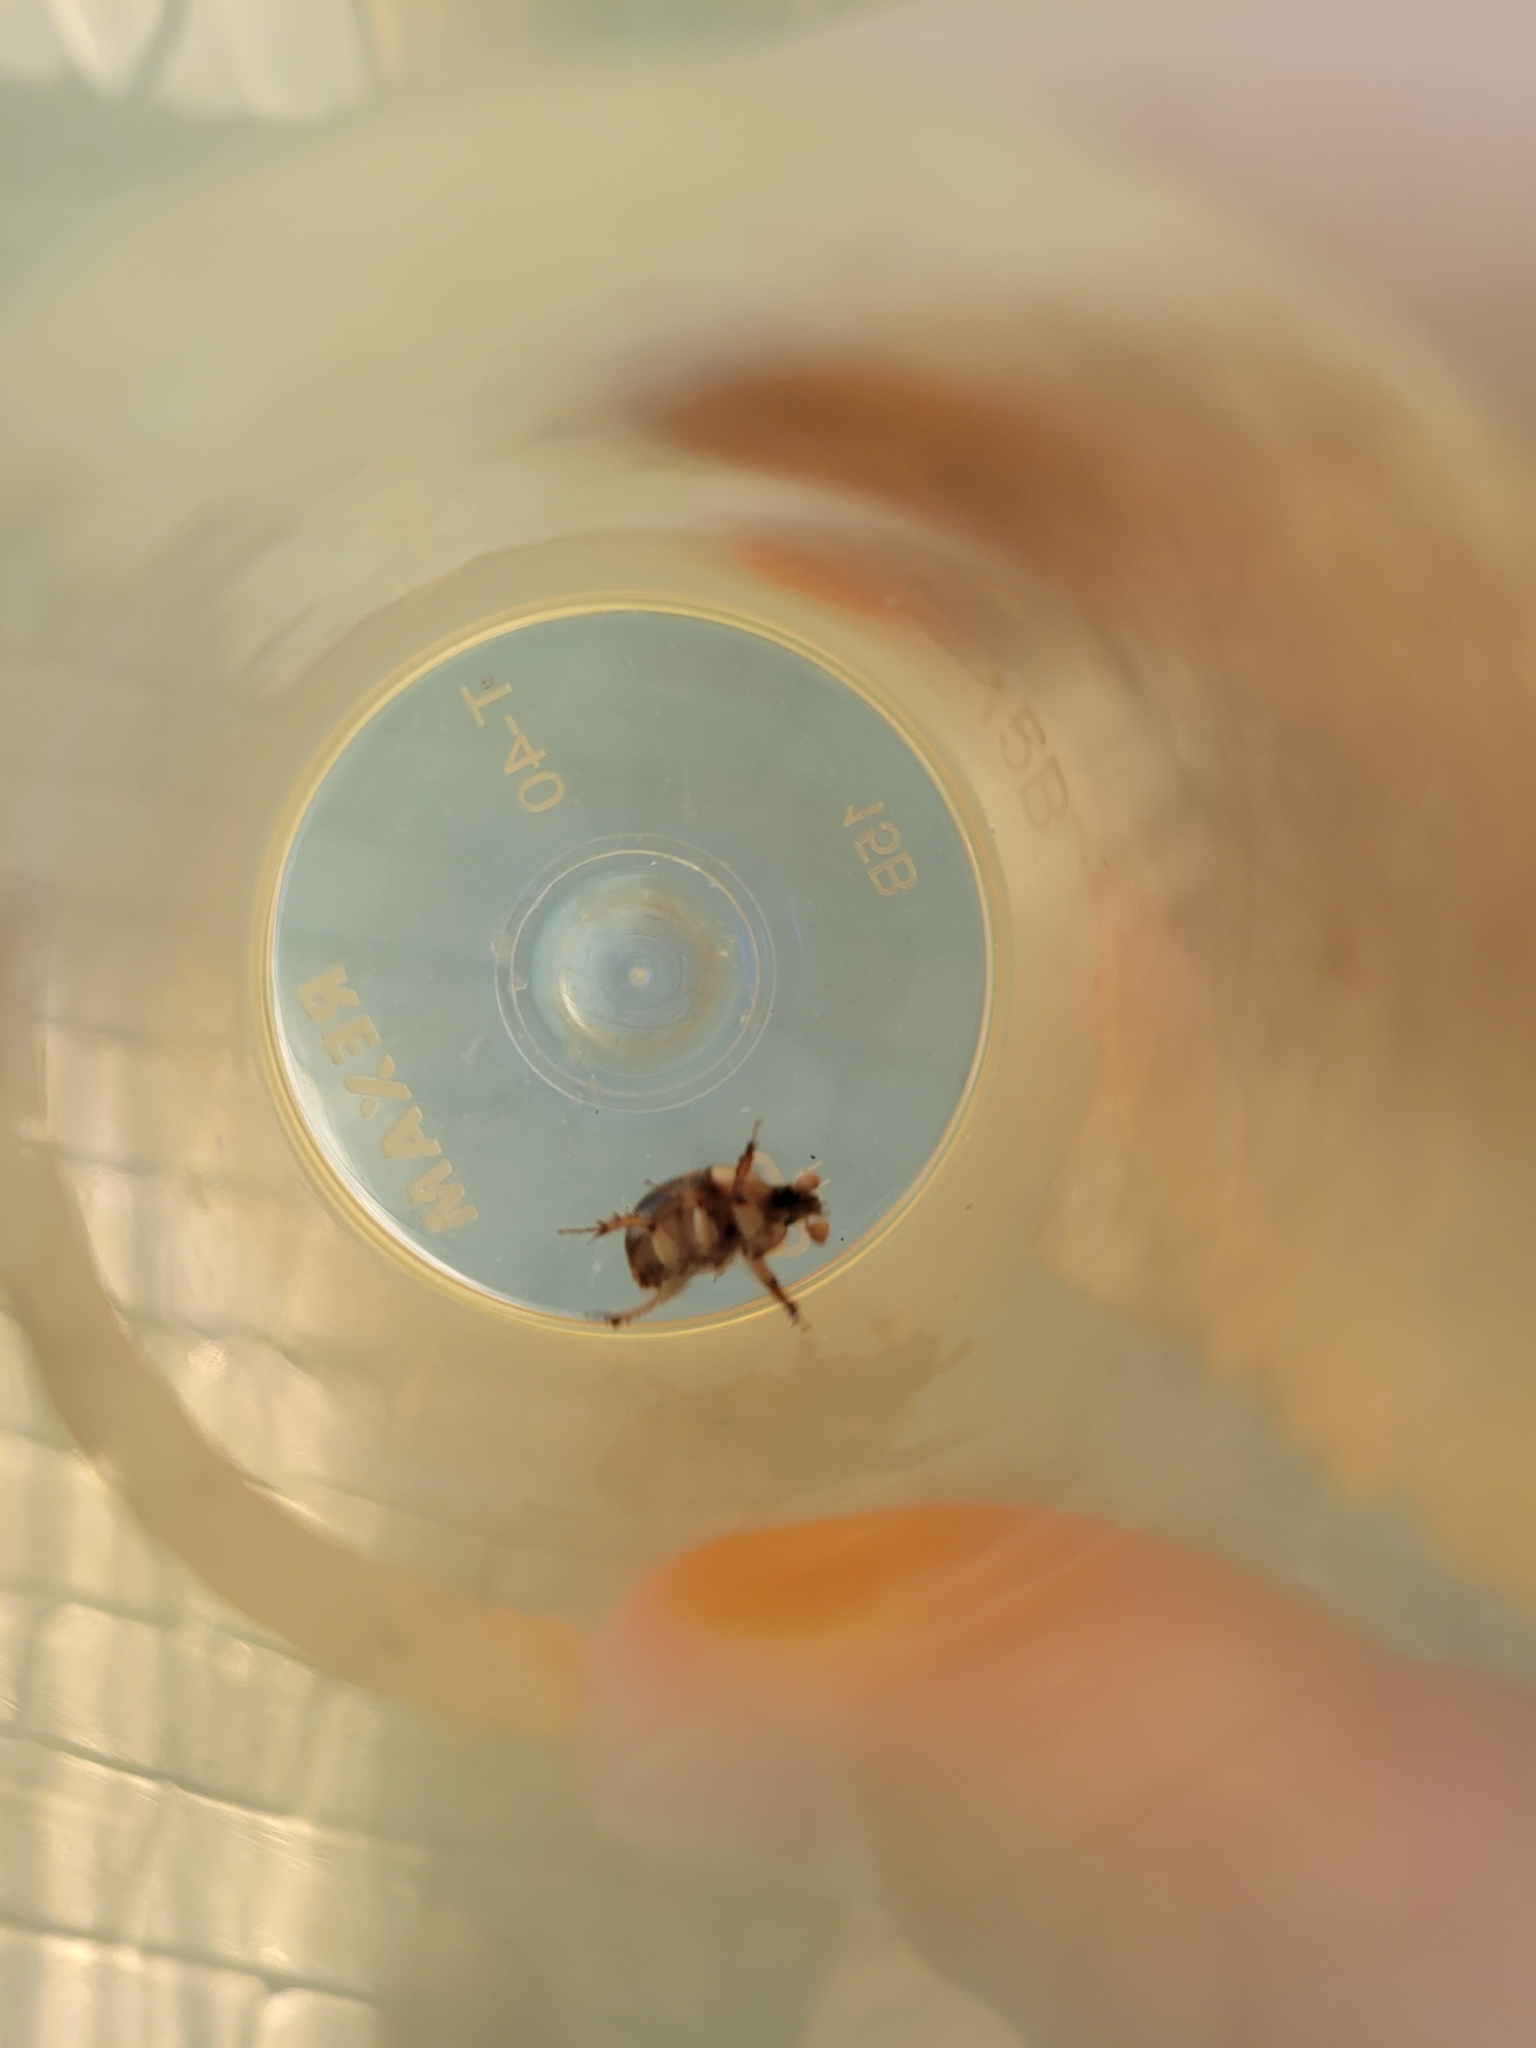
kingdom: Animalia
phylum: Arthropoda
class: Insecta
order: Coleoptera
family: Geotrupidae
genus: Bolbocerosoma
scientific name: Bolbocerosoma farctum
